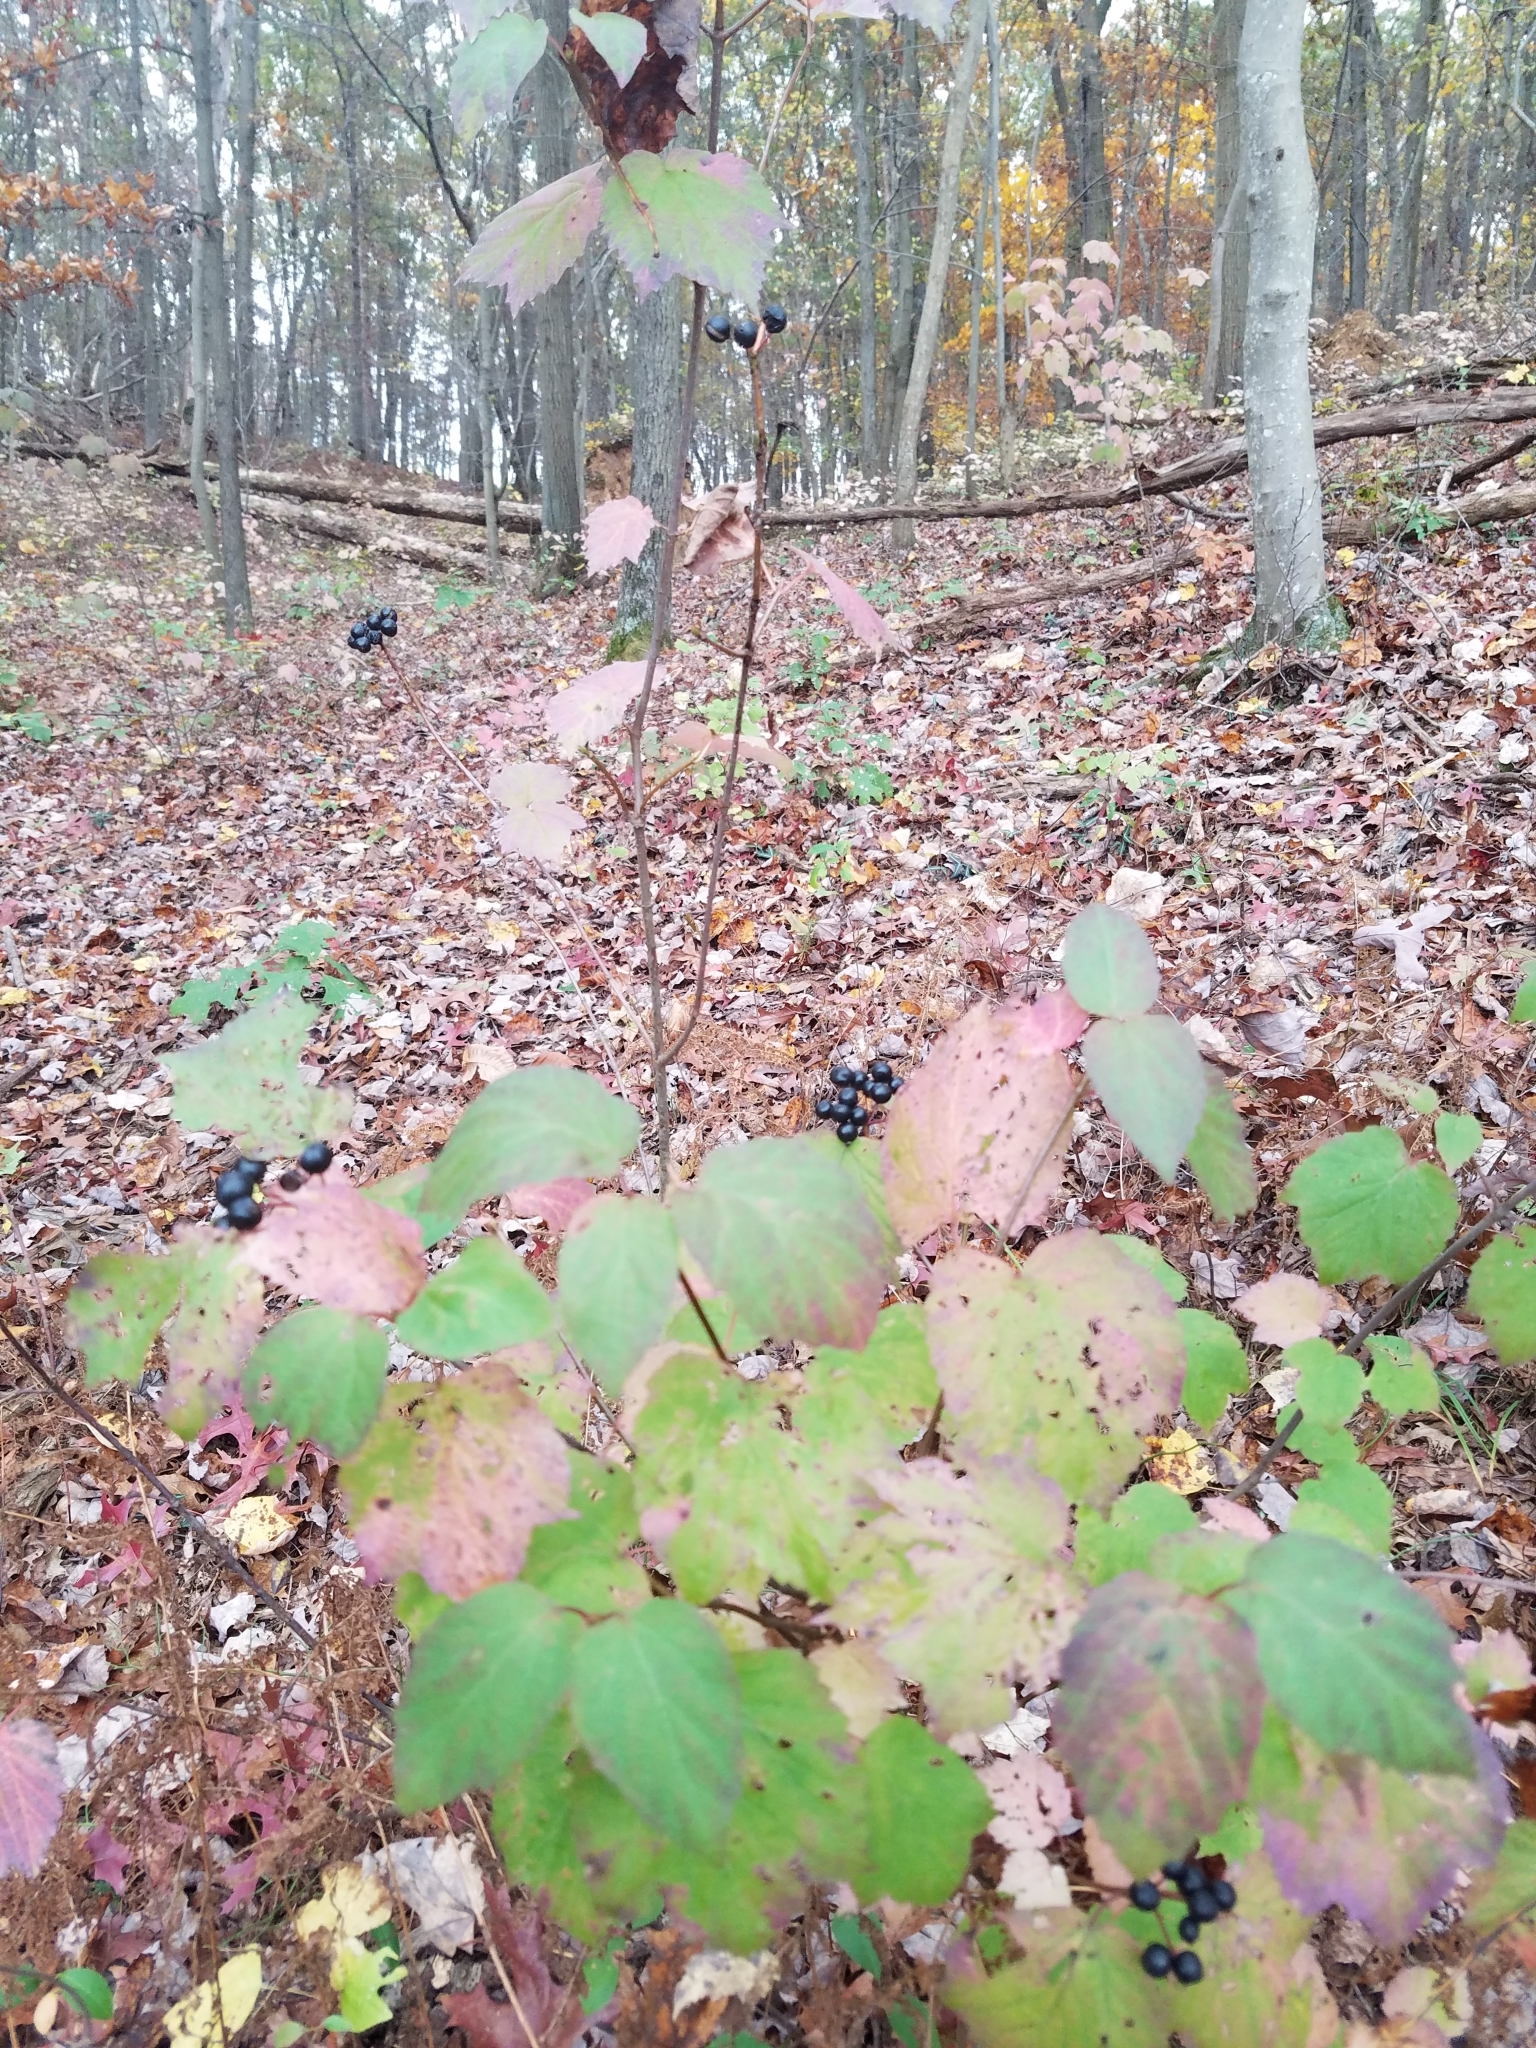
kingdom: Plantae
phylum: Tracheophyta
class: Magnoliopsida
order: Dipsacales
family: Viburnaceae
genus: Viburnum
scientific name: Viburnum acerifolium
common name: Dockmackie
